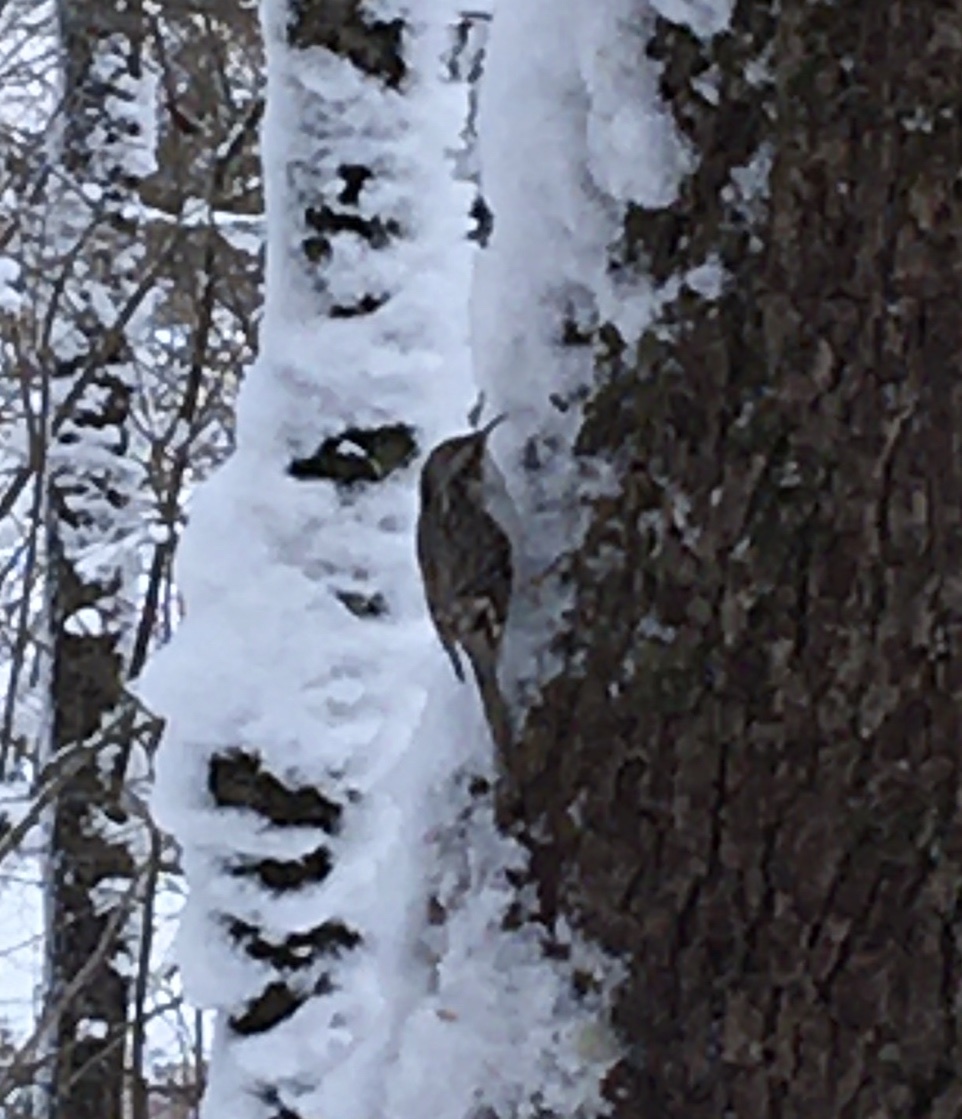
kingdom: Animalia
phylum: Chordata
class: Aves
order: Passeriformes
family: Certhiidae
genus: Certhia
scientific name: Certhia familiaris
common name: Eurasian treecreeper
